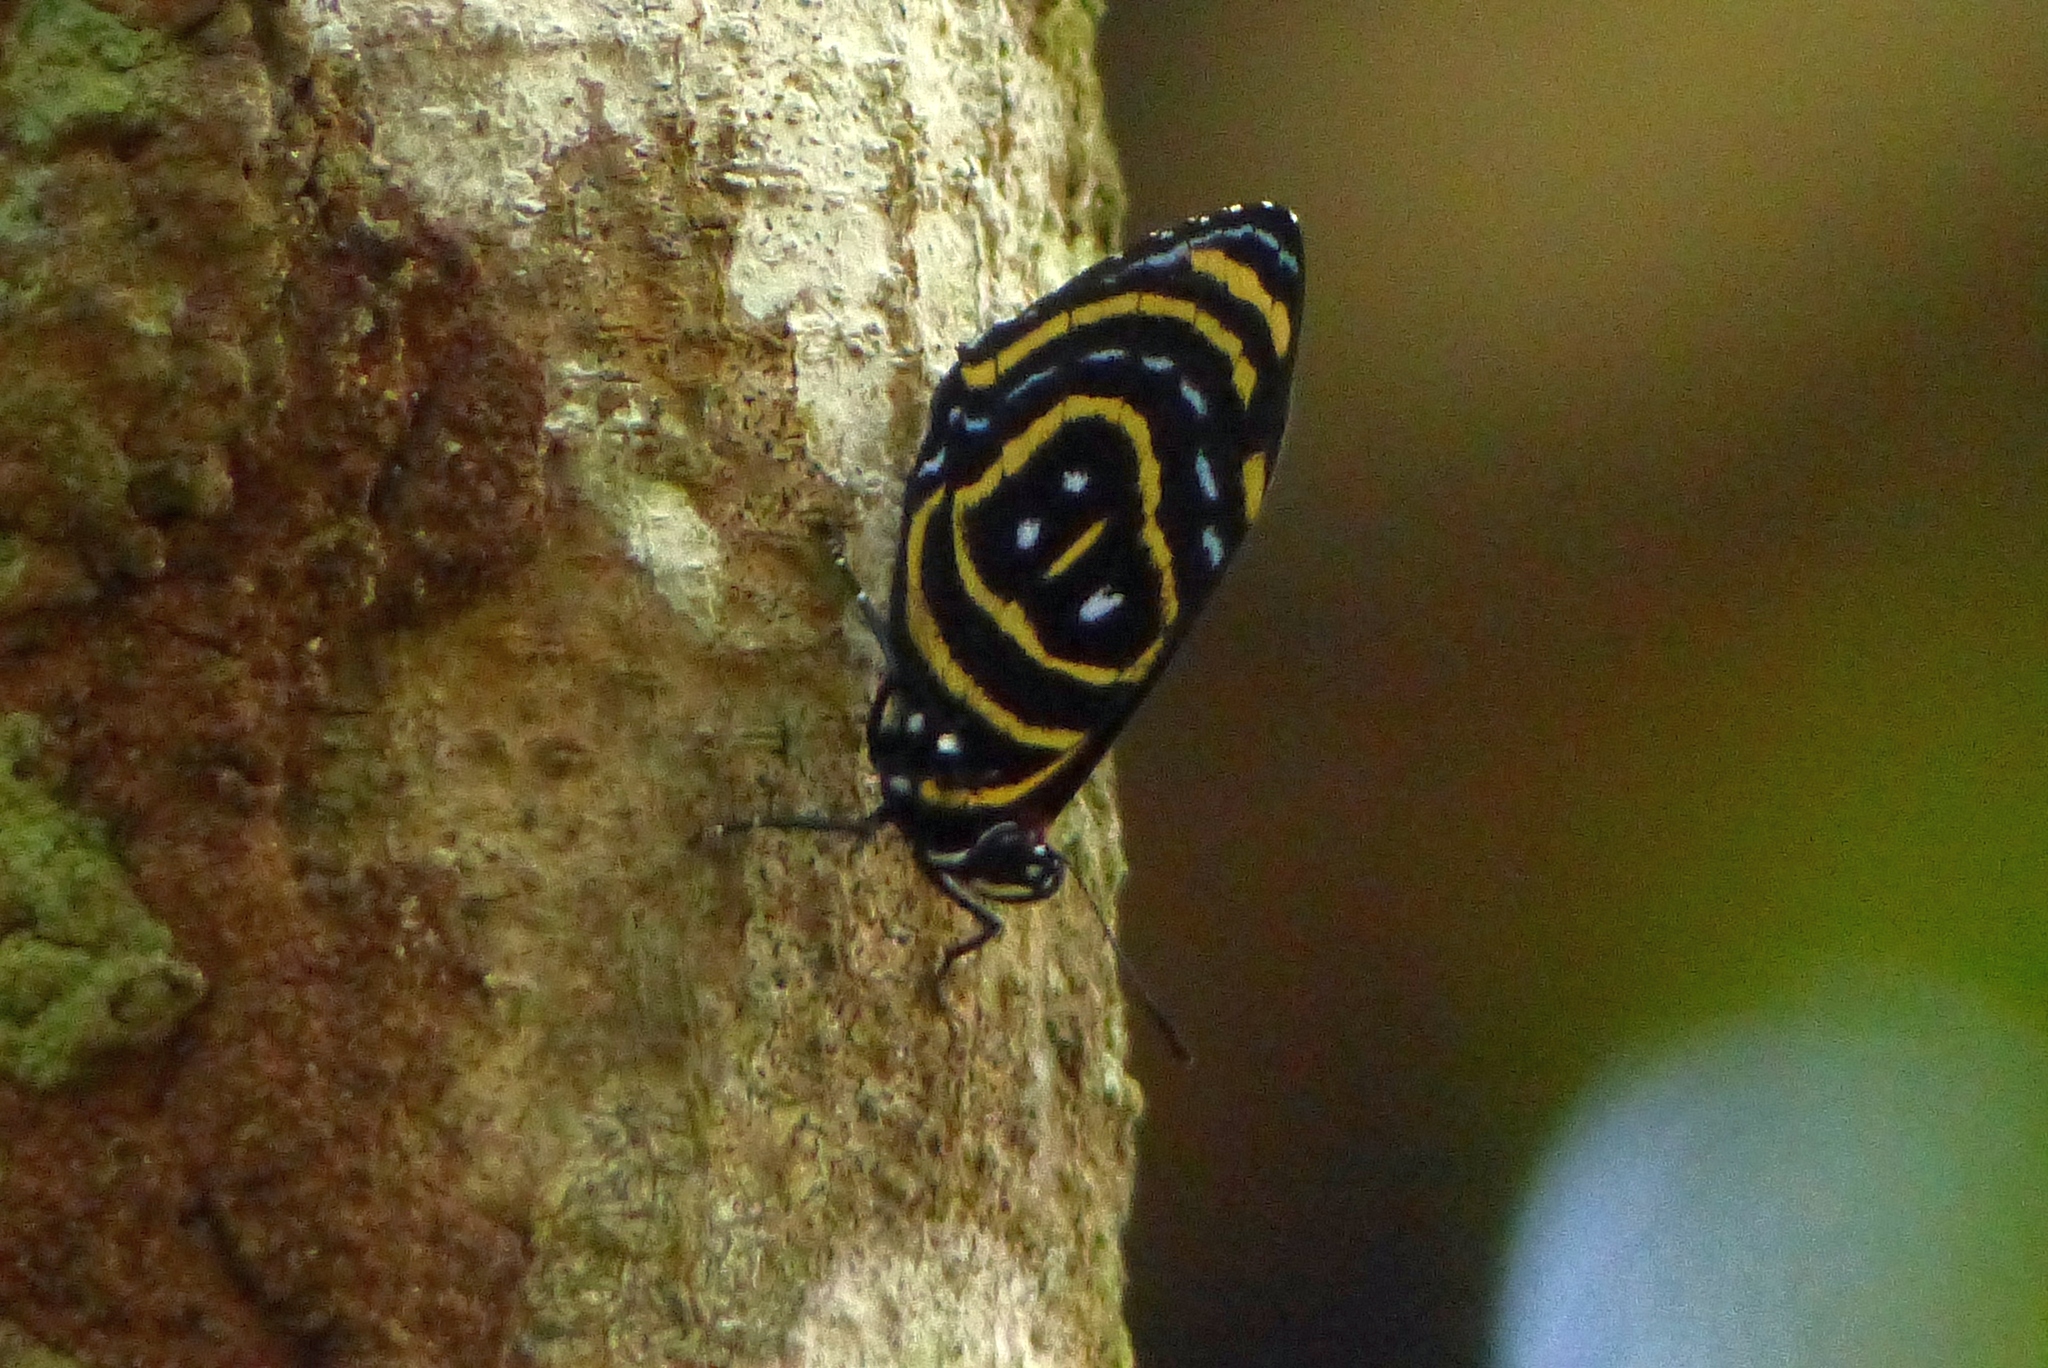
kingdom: Animalia
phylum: Arthropoda
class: Insecta
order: Lepidoptera
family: Nymphalidae
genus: Catagramma
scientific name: Catagramma astarte
